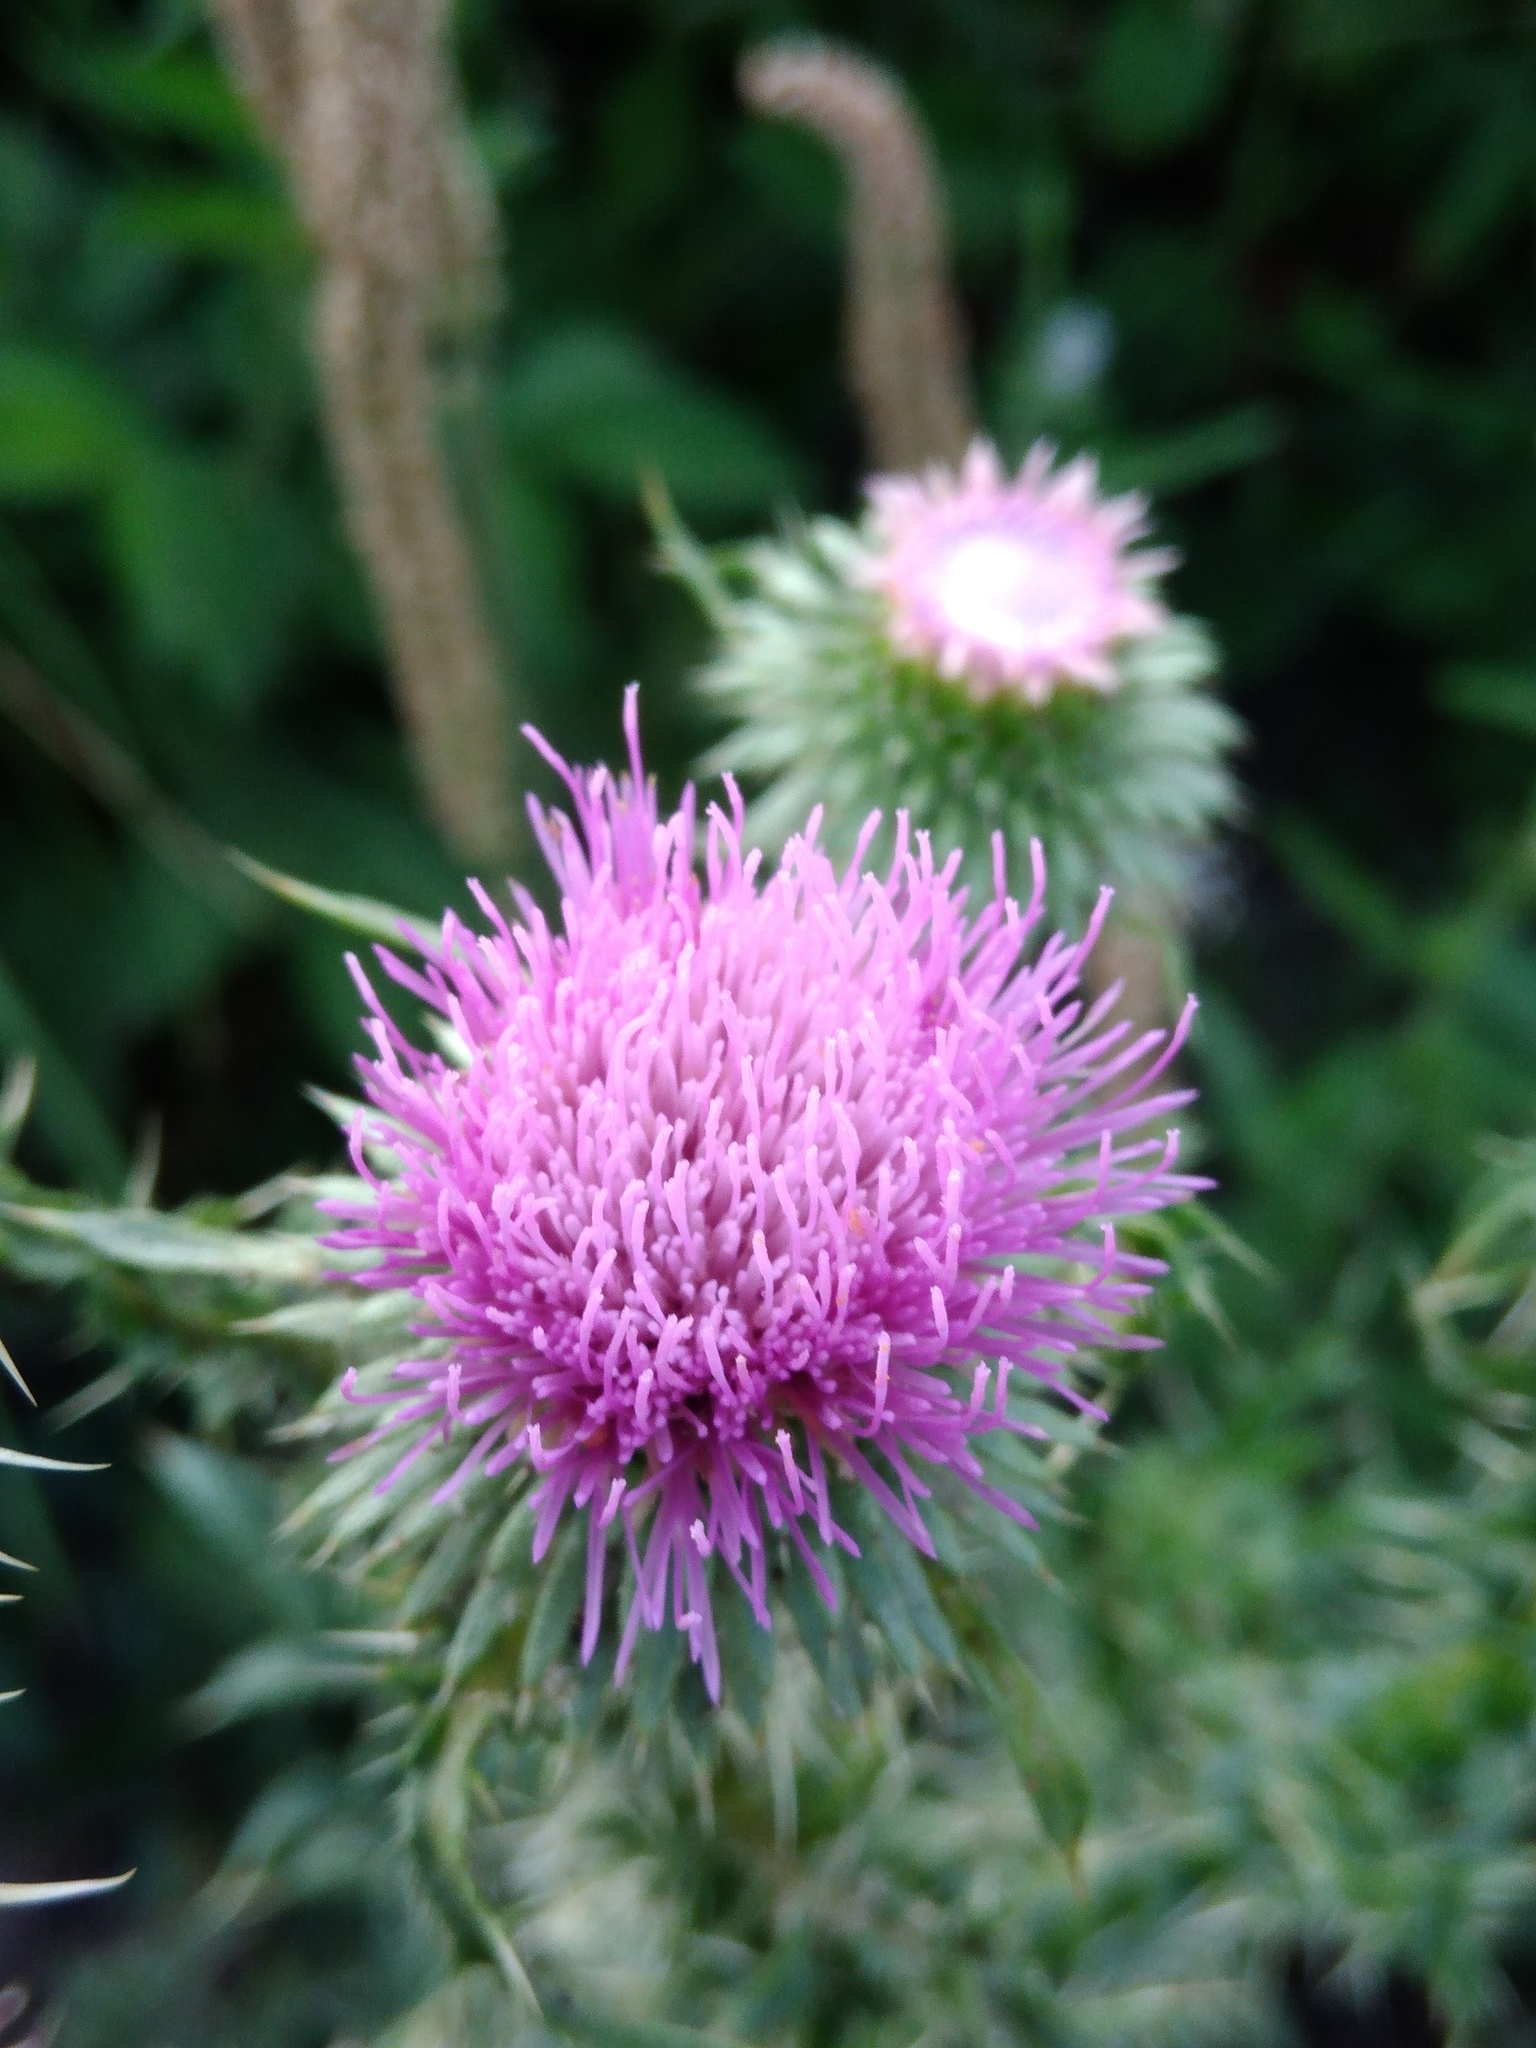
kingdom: Plantae
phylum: Tracheophyta
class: Magnoliopsida
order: Asterales
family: Asteraceae
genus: Carduus
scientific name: Carduus acanthoides
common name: Plumeless thistle
